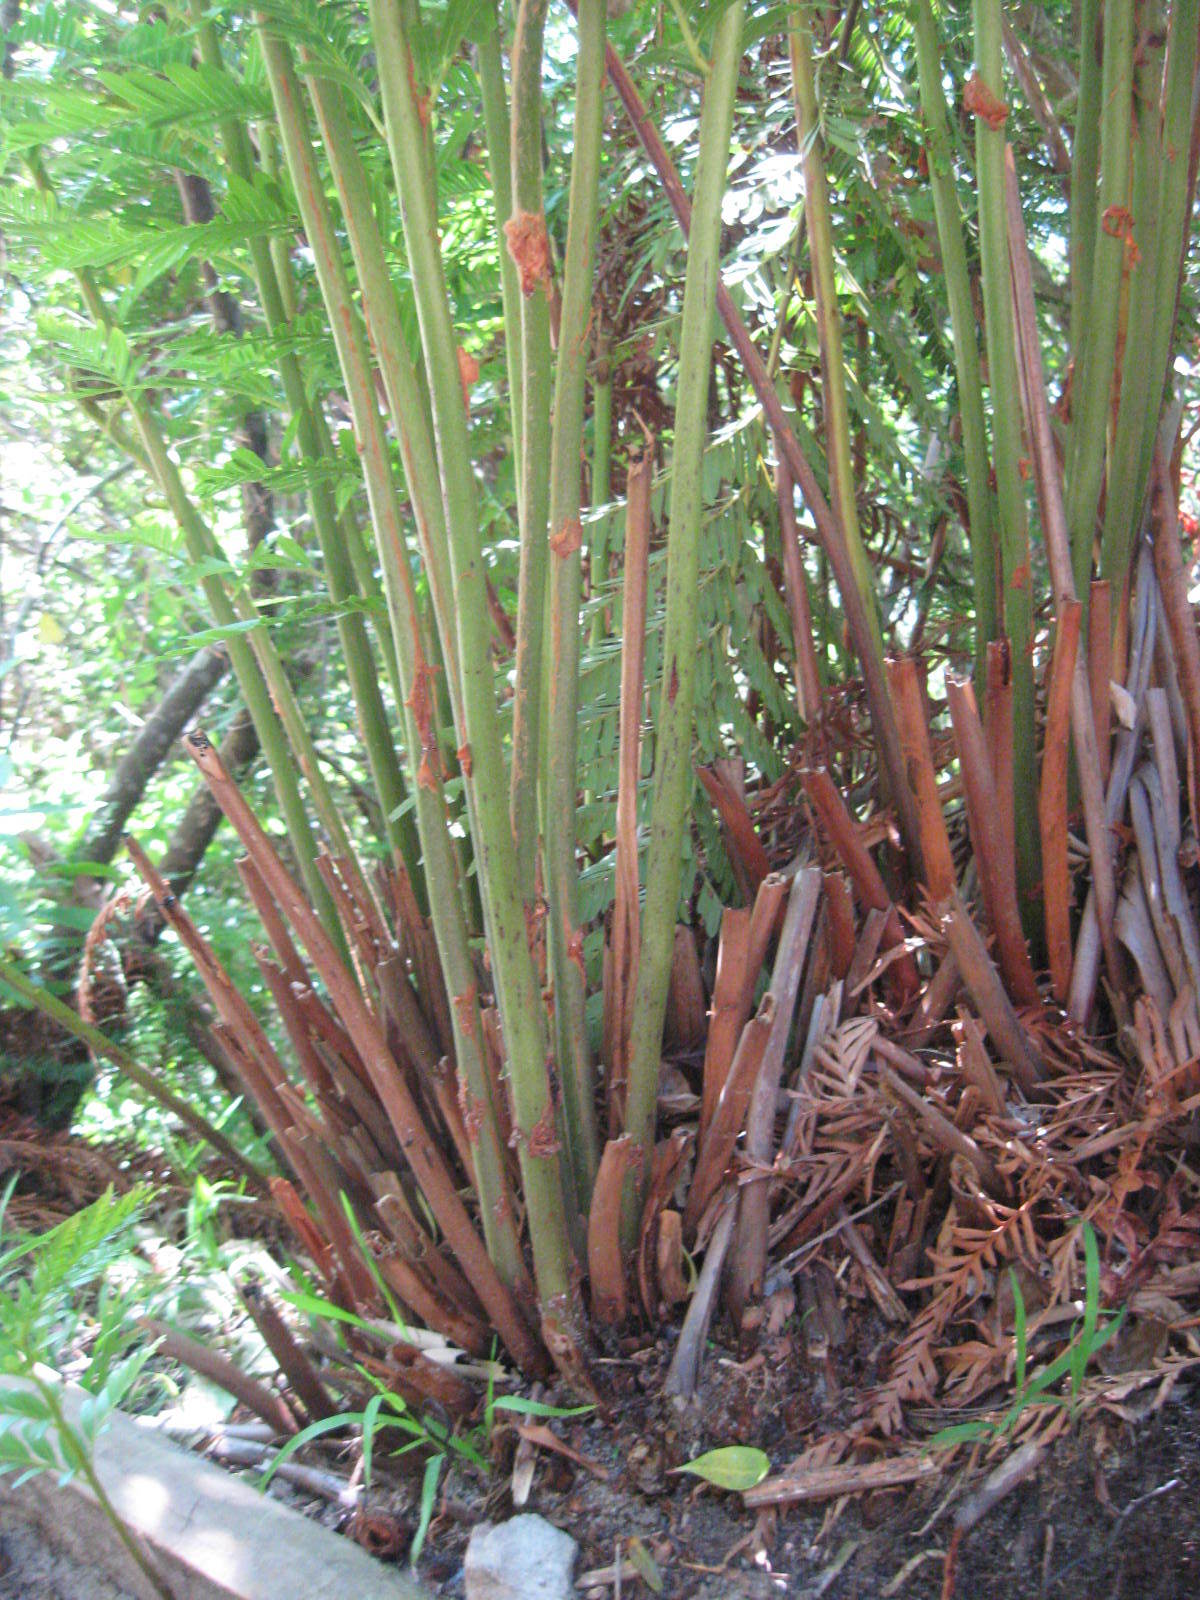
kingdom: Plantae
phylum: Tracheophyta
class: Polypodiopsida
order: Osmundales
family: Osmundaceae
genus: Todea
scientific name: Todea barbara
